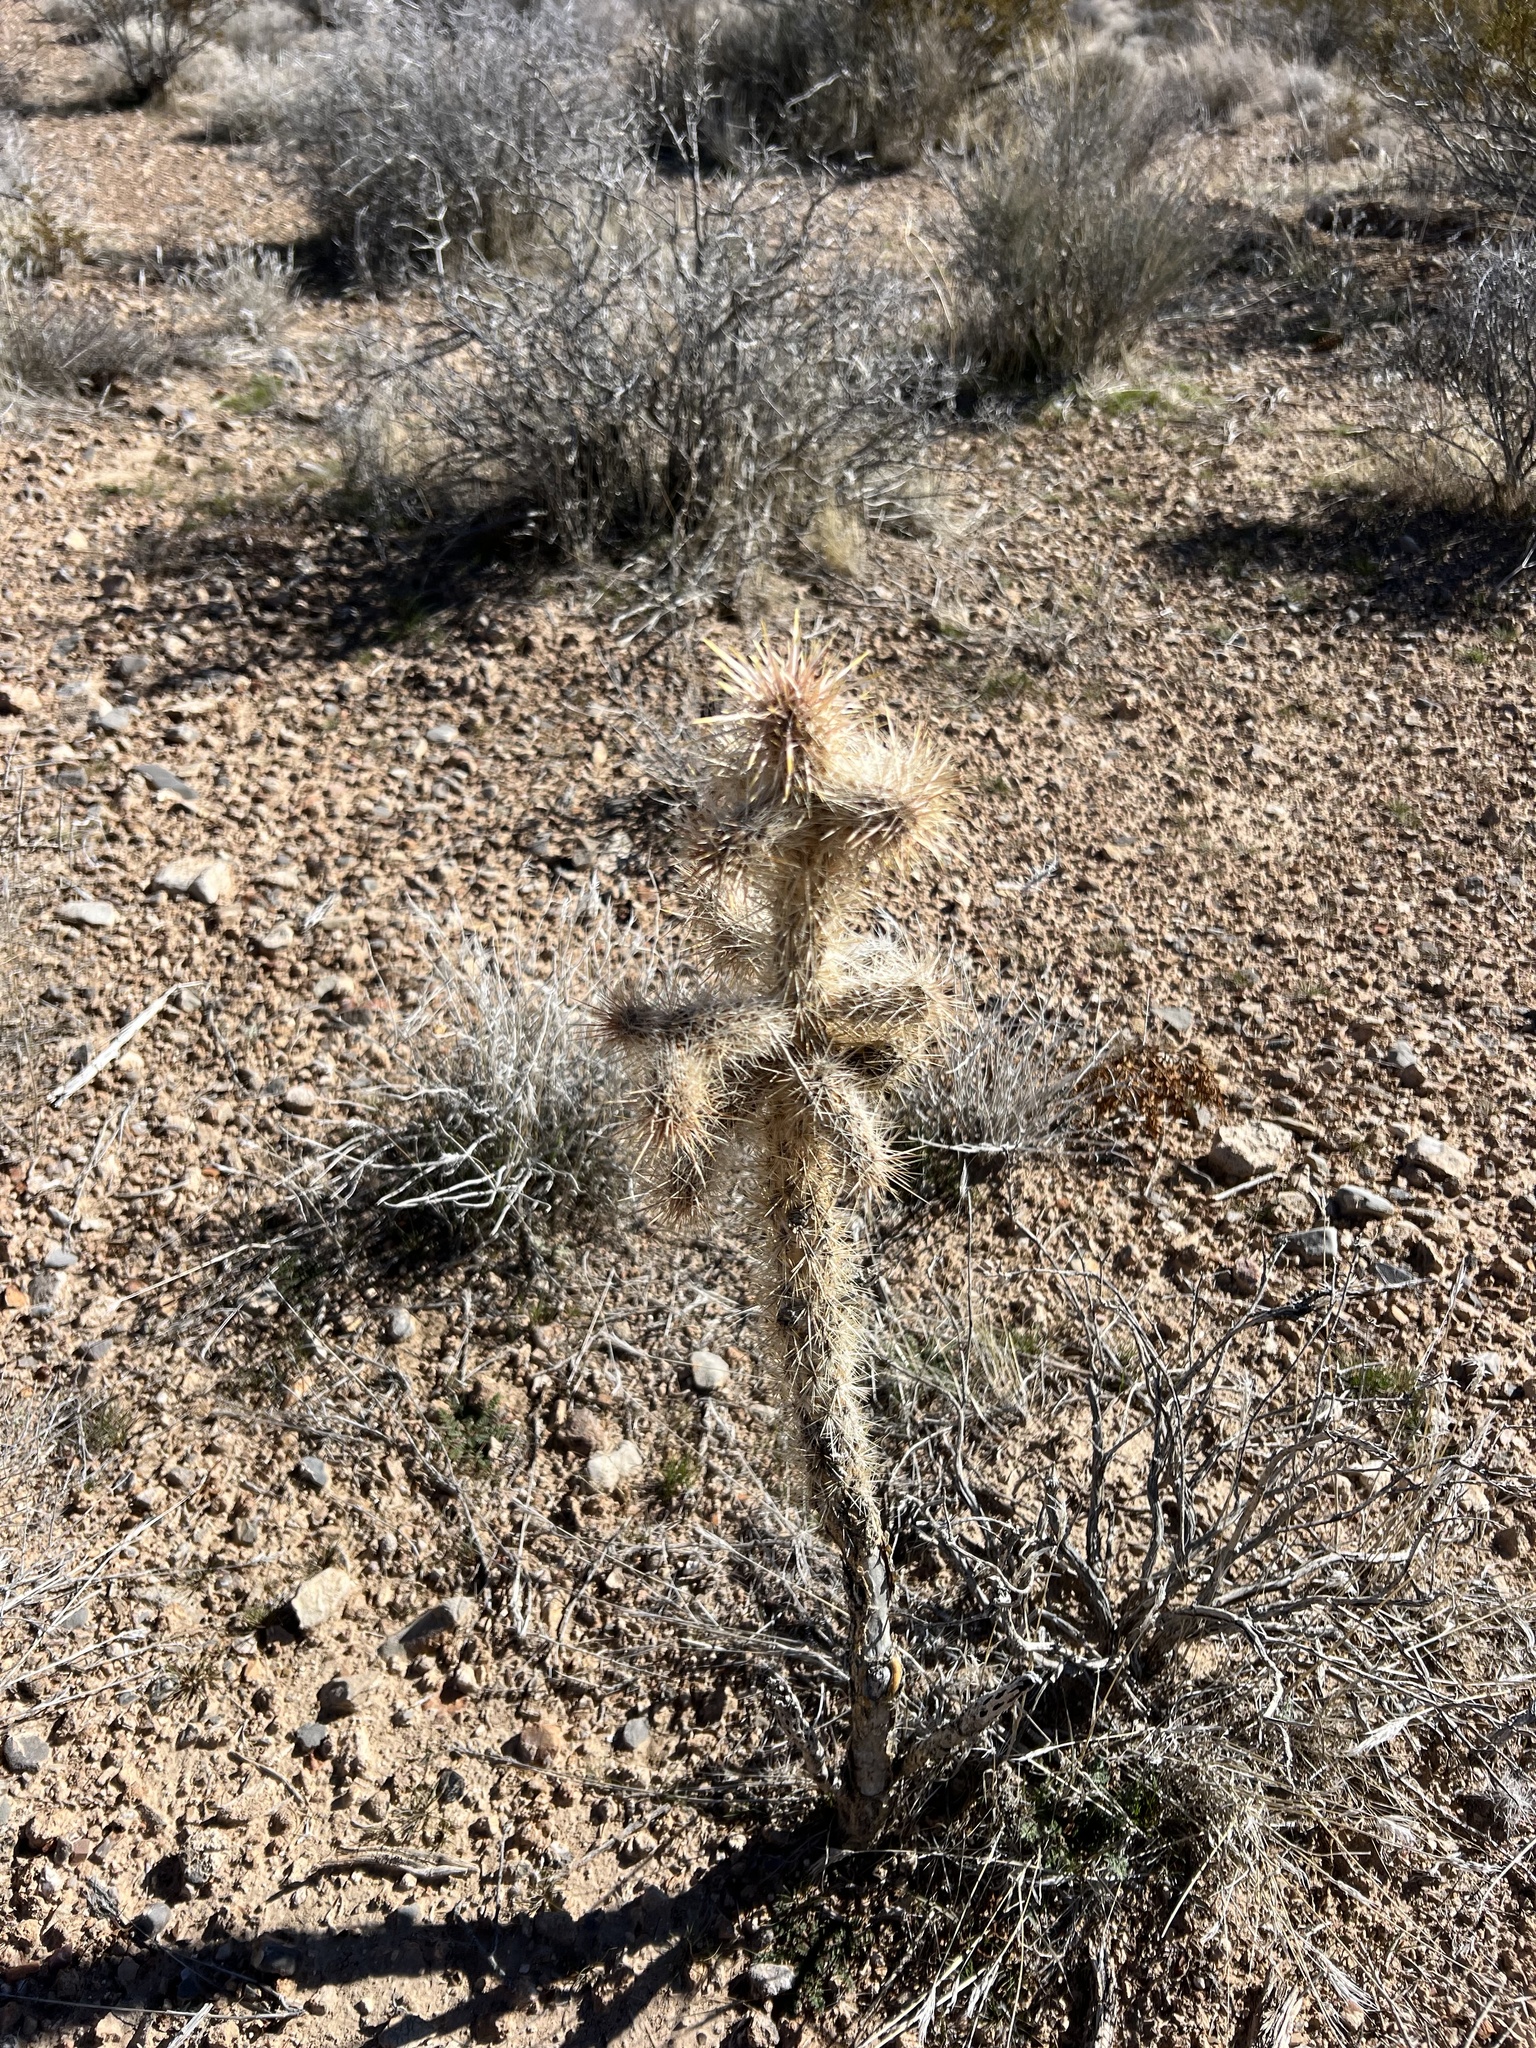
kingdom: Plantae
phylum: Tracheophyta
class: Magnoliopsida
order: Caryophyllales
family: Cactaceae
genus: Cylindropuntia
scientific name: Cylindropuntia echinocarpa
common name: Ground cholla
